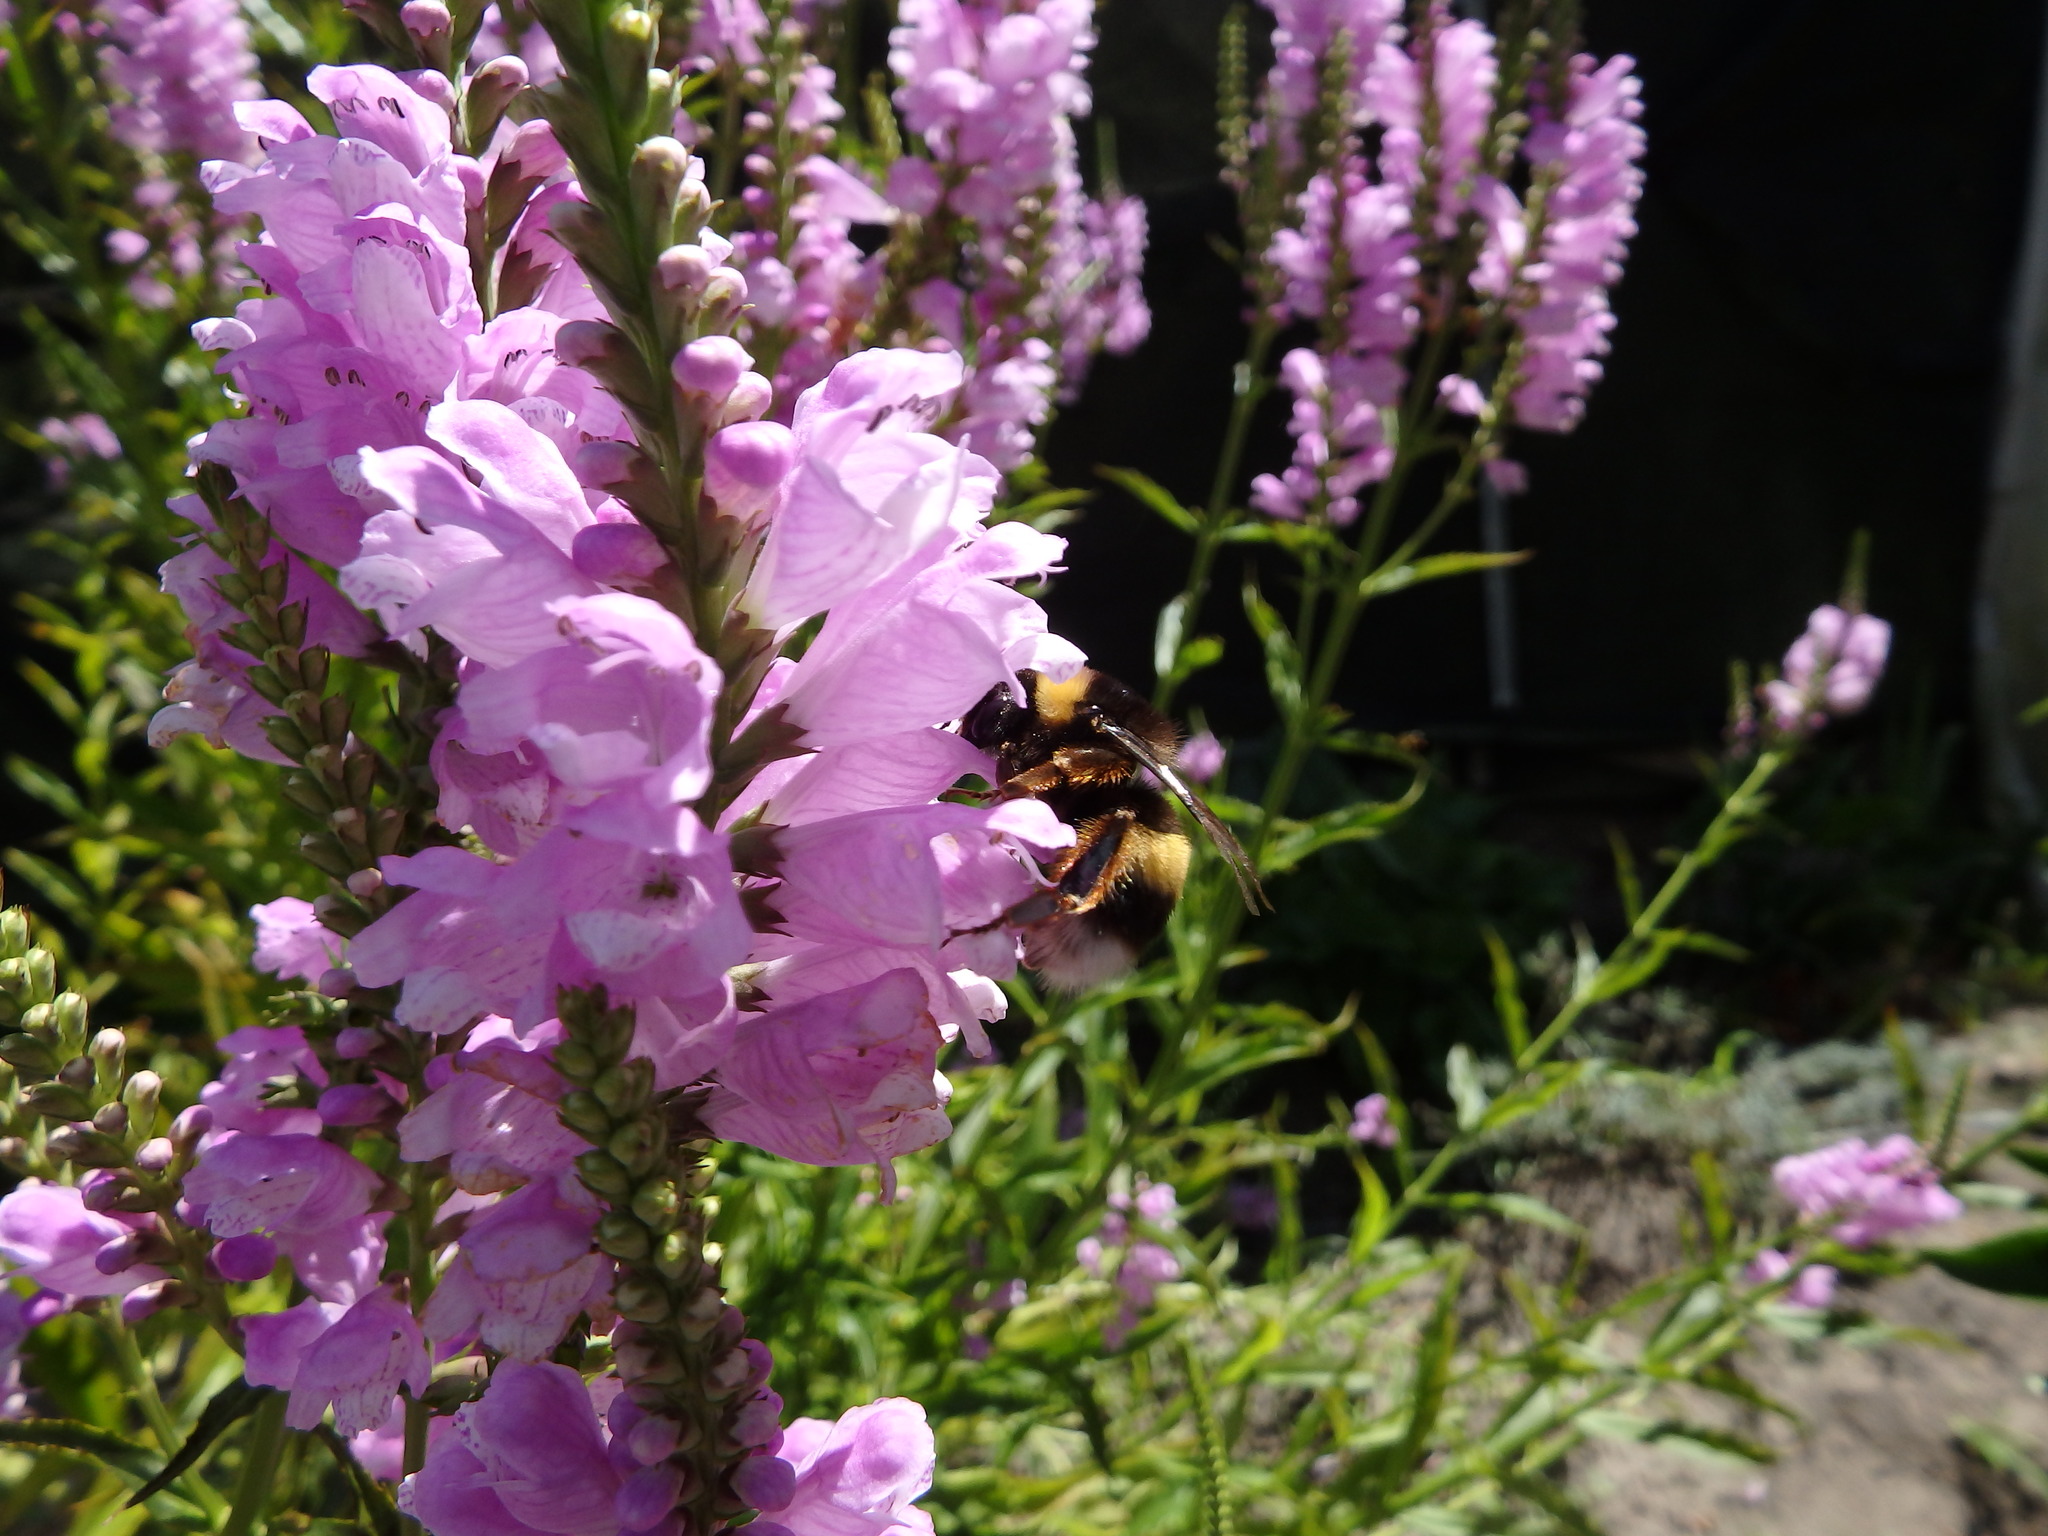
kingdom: Animalia
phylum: Arthropoda
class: Insecta
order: Hymenoptera
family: Apidae
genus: Bombus
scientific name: Bombus terrestris
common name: Buff-tailed bumblebee
